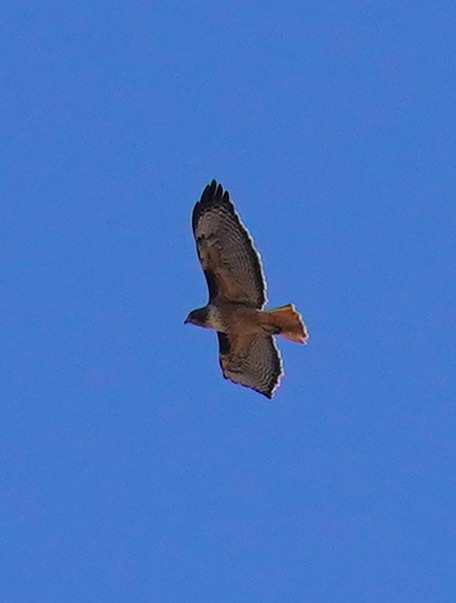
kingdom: Animalia
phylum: Chordata
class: Aves
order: Accipitriformes
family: Accipitridae
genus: Buteo
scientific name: Buteo jamaicensis
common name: Red-tailed hawk
